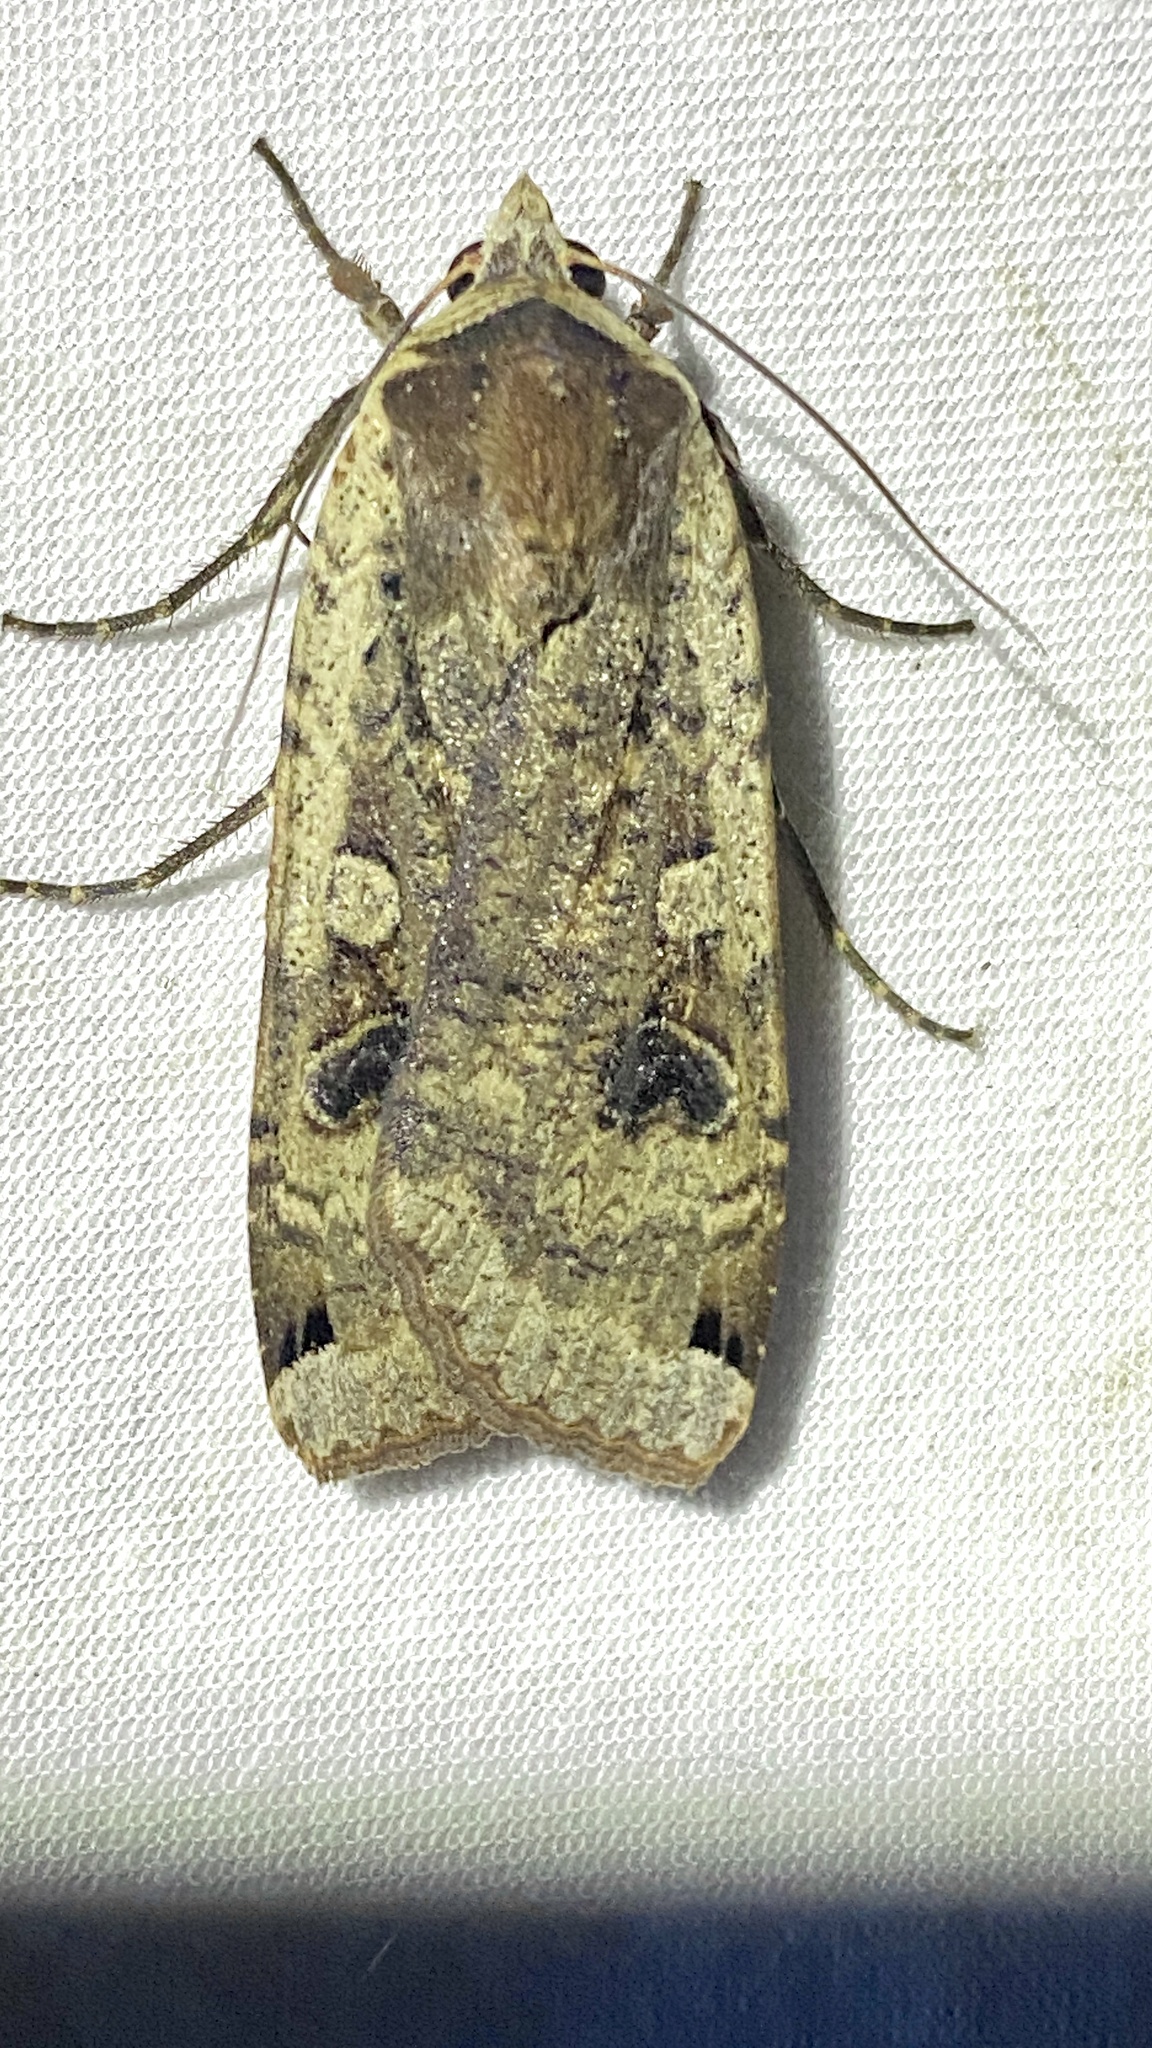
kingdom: Animalia
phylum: Arthropoda
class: Insecta
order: Lepidoptera
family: Noctuidae
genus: Noctua
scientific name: Noctua pronuba
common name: Large yellow underwing
